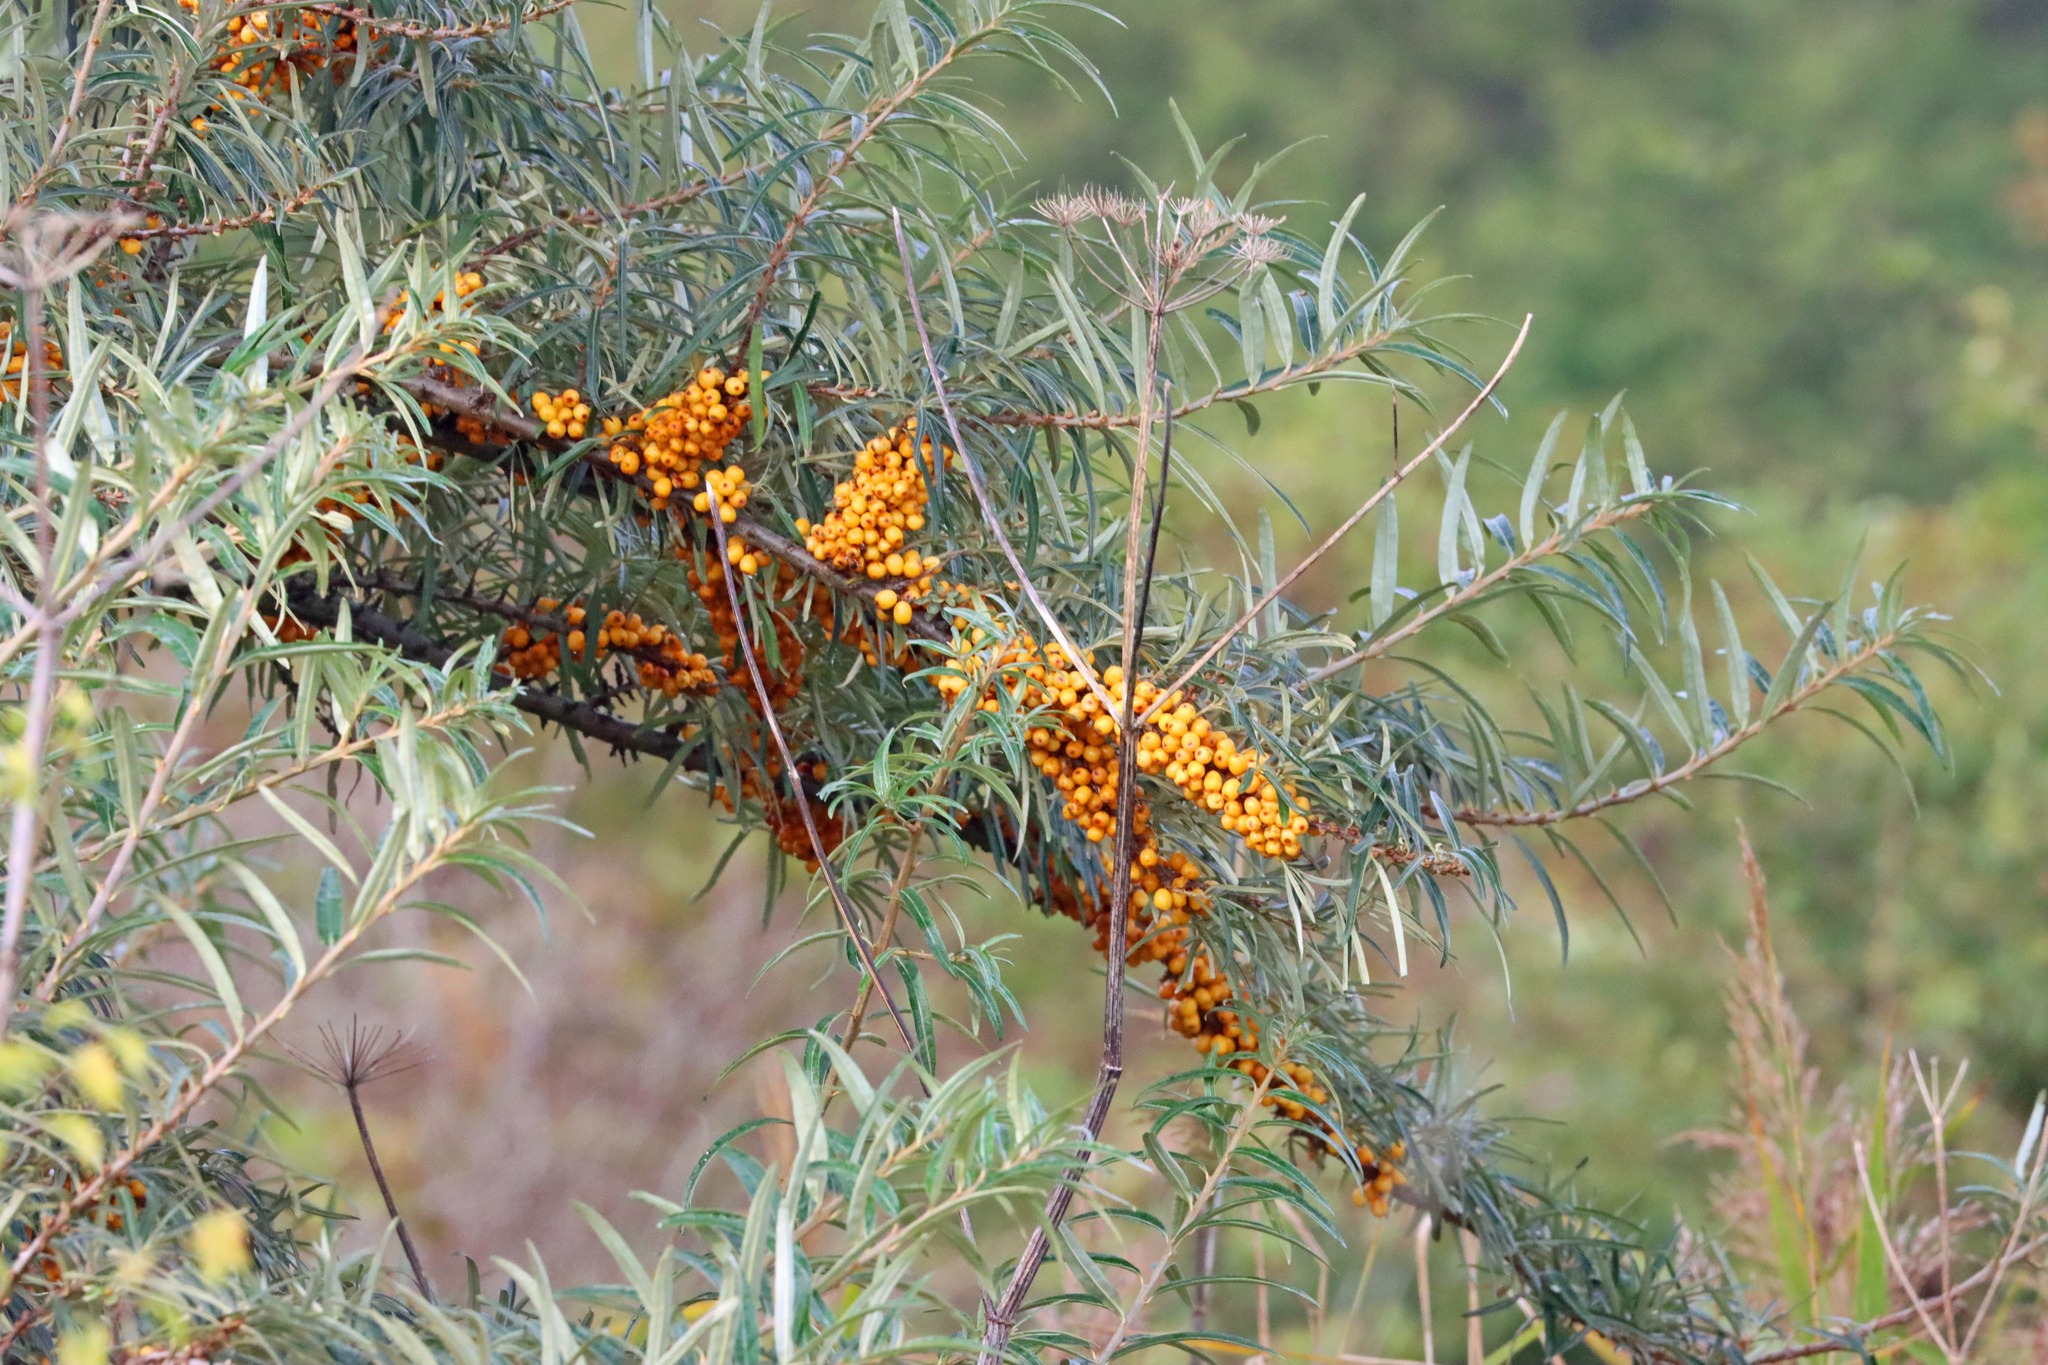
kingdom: Plantae
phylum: Tracheophyta
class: Magnoliopsida
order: Rosales
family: Elaeagnaceae
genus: Hippophae
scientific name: Hippophae rhamnoides
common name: Sea-buckthorn
